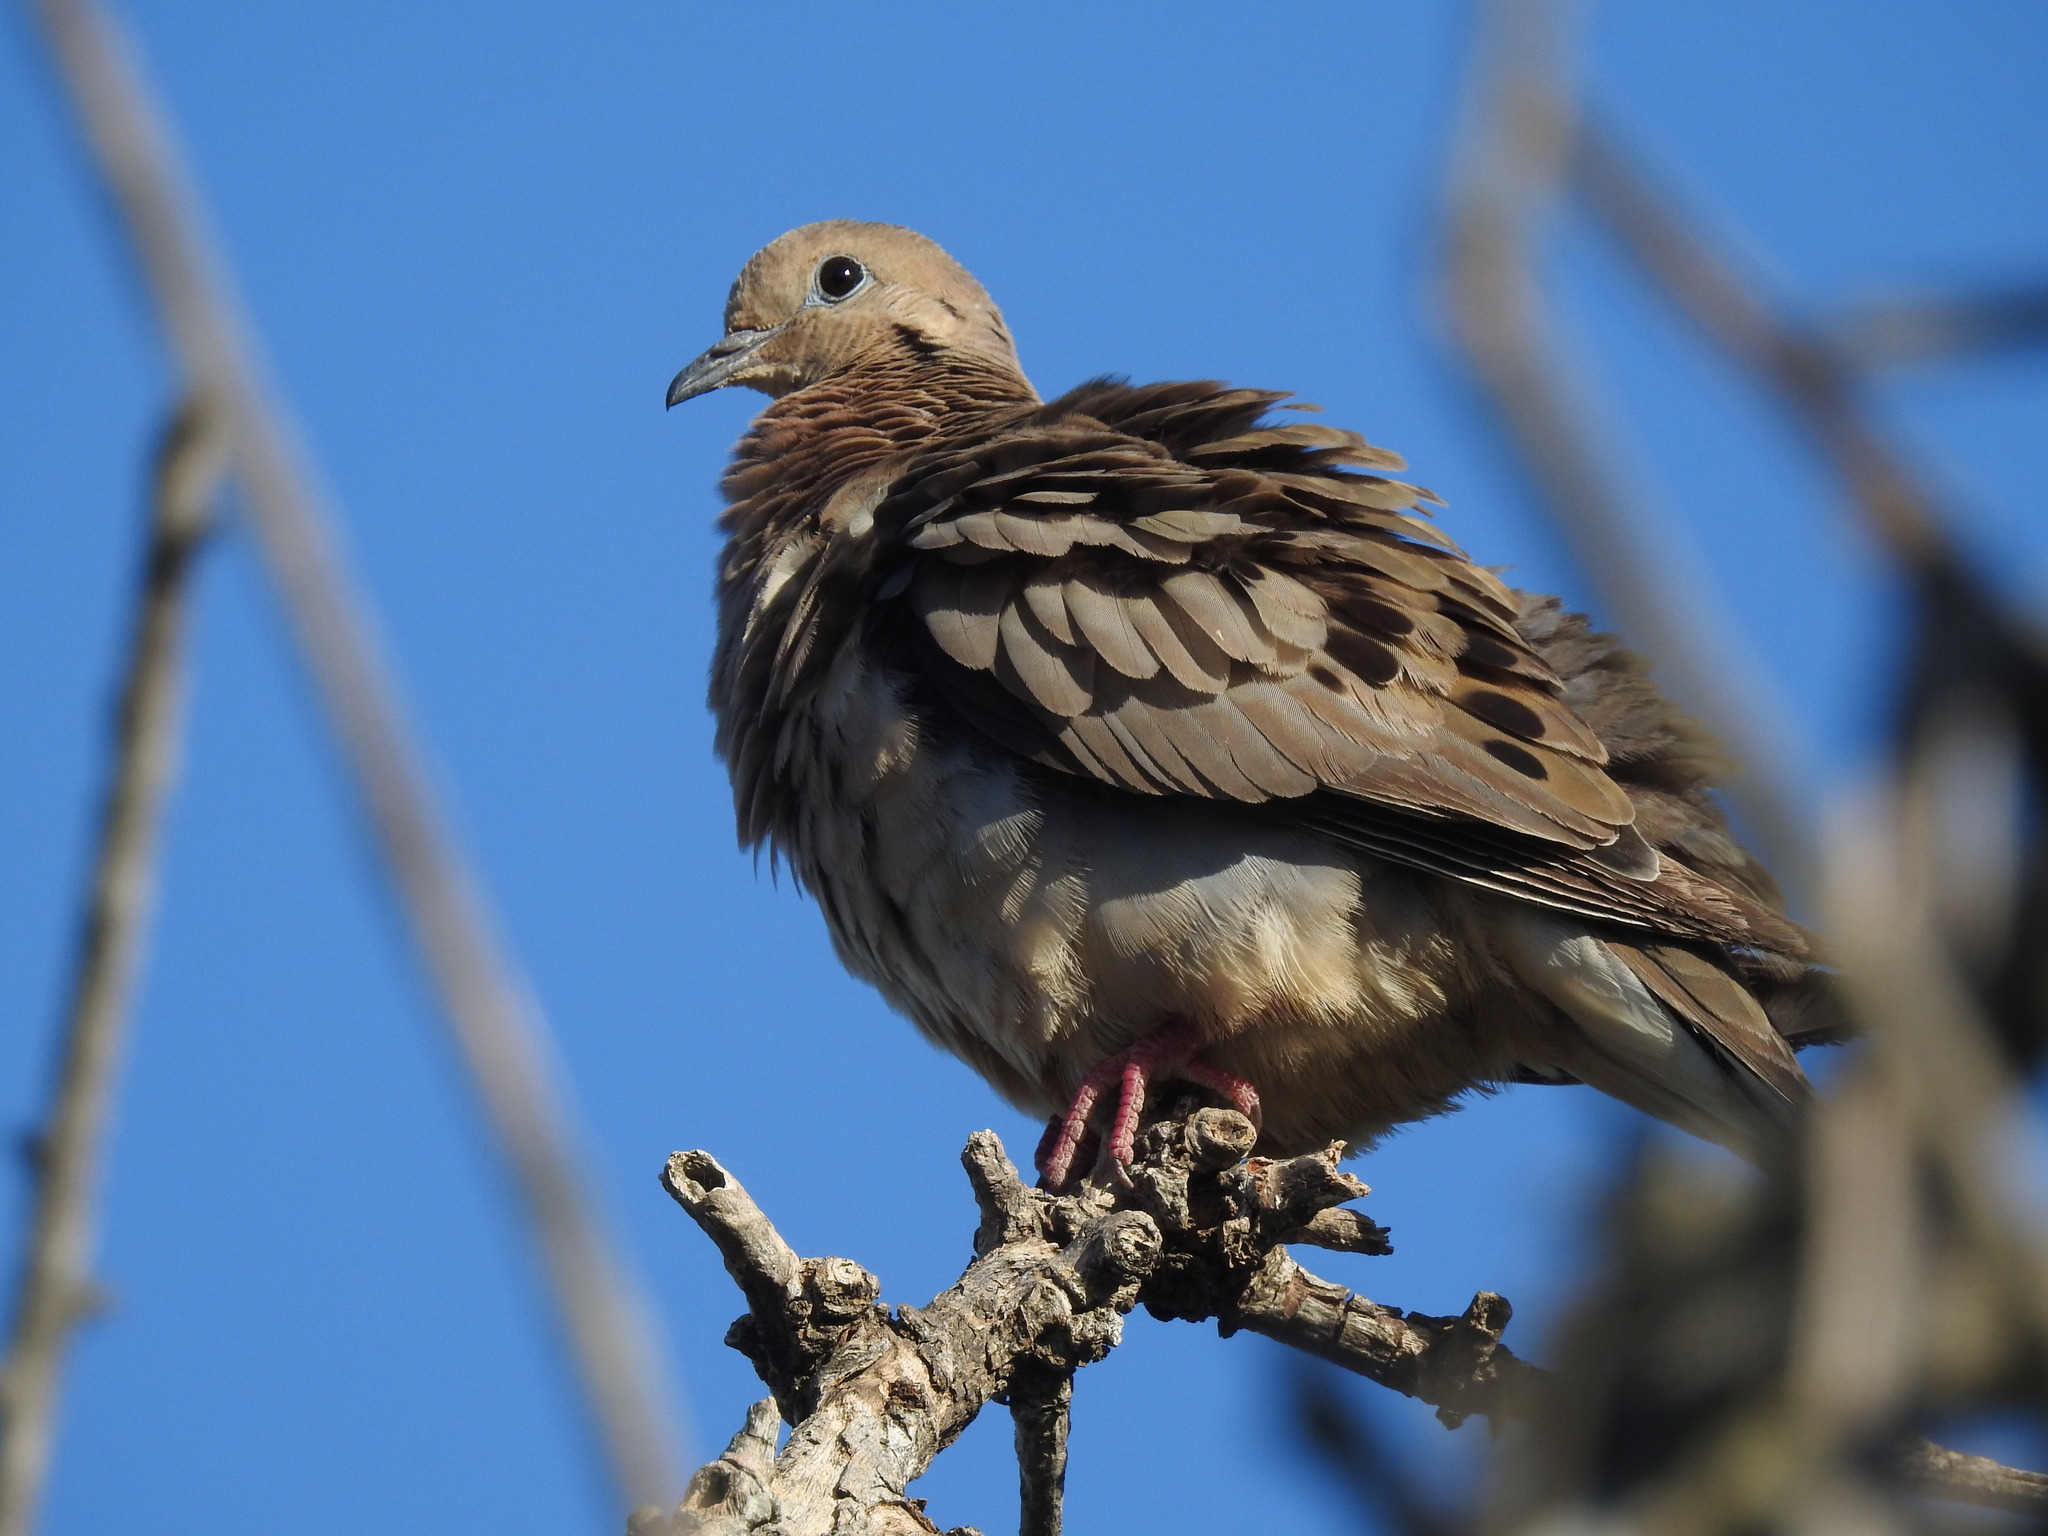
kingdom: Animalia
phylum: Chordata
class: Aves
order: Columbiformes
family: Columbidae
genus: Zenaida
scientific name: Zenaida auriculata
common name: Eared dove
